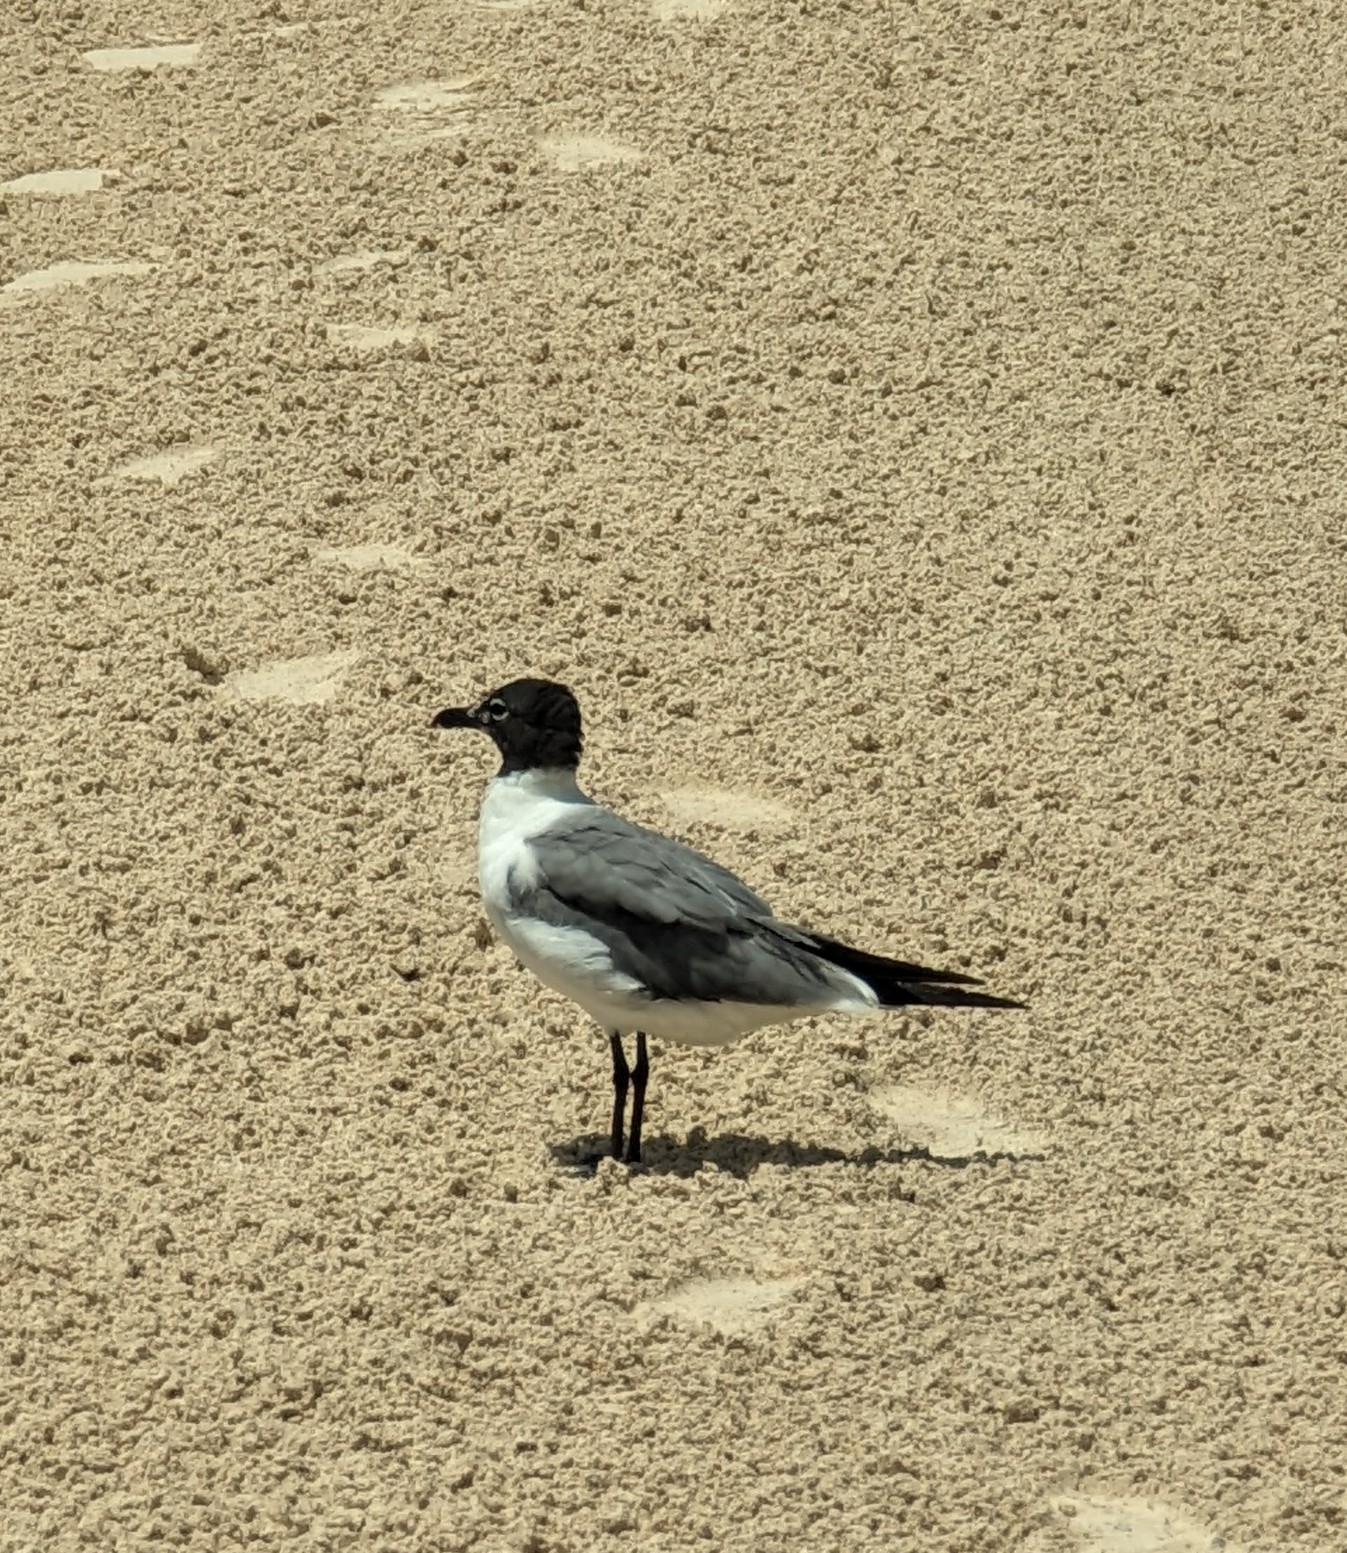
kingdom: Animalia
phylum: Chordata
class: Aves
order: Charadriiformes
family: Laridae
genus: Leucophaeus
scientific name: Leucophaeus atricilla
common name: Laughing gull
